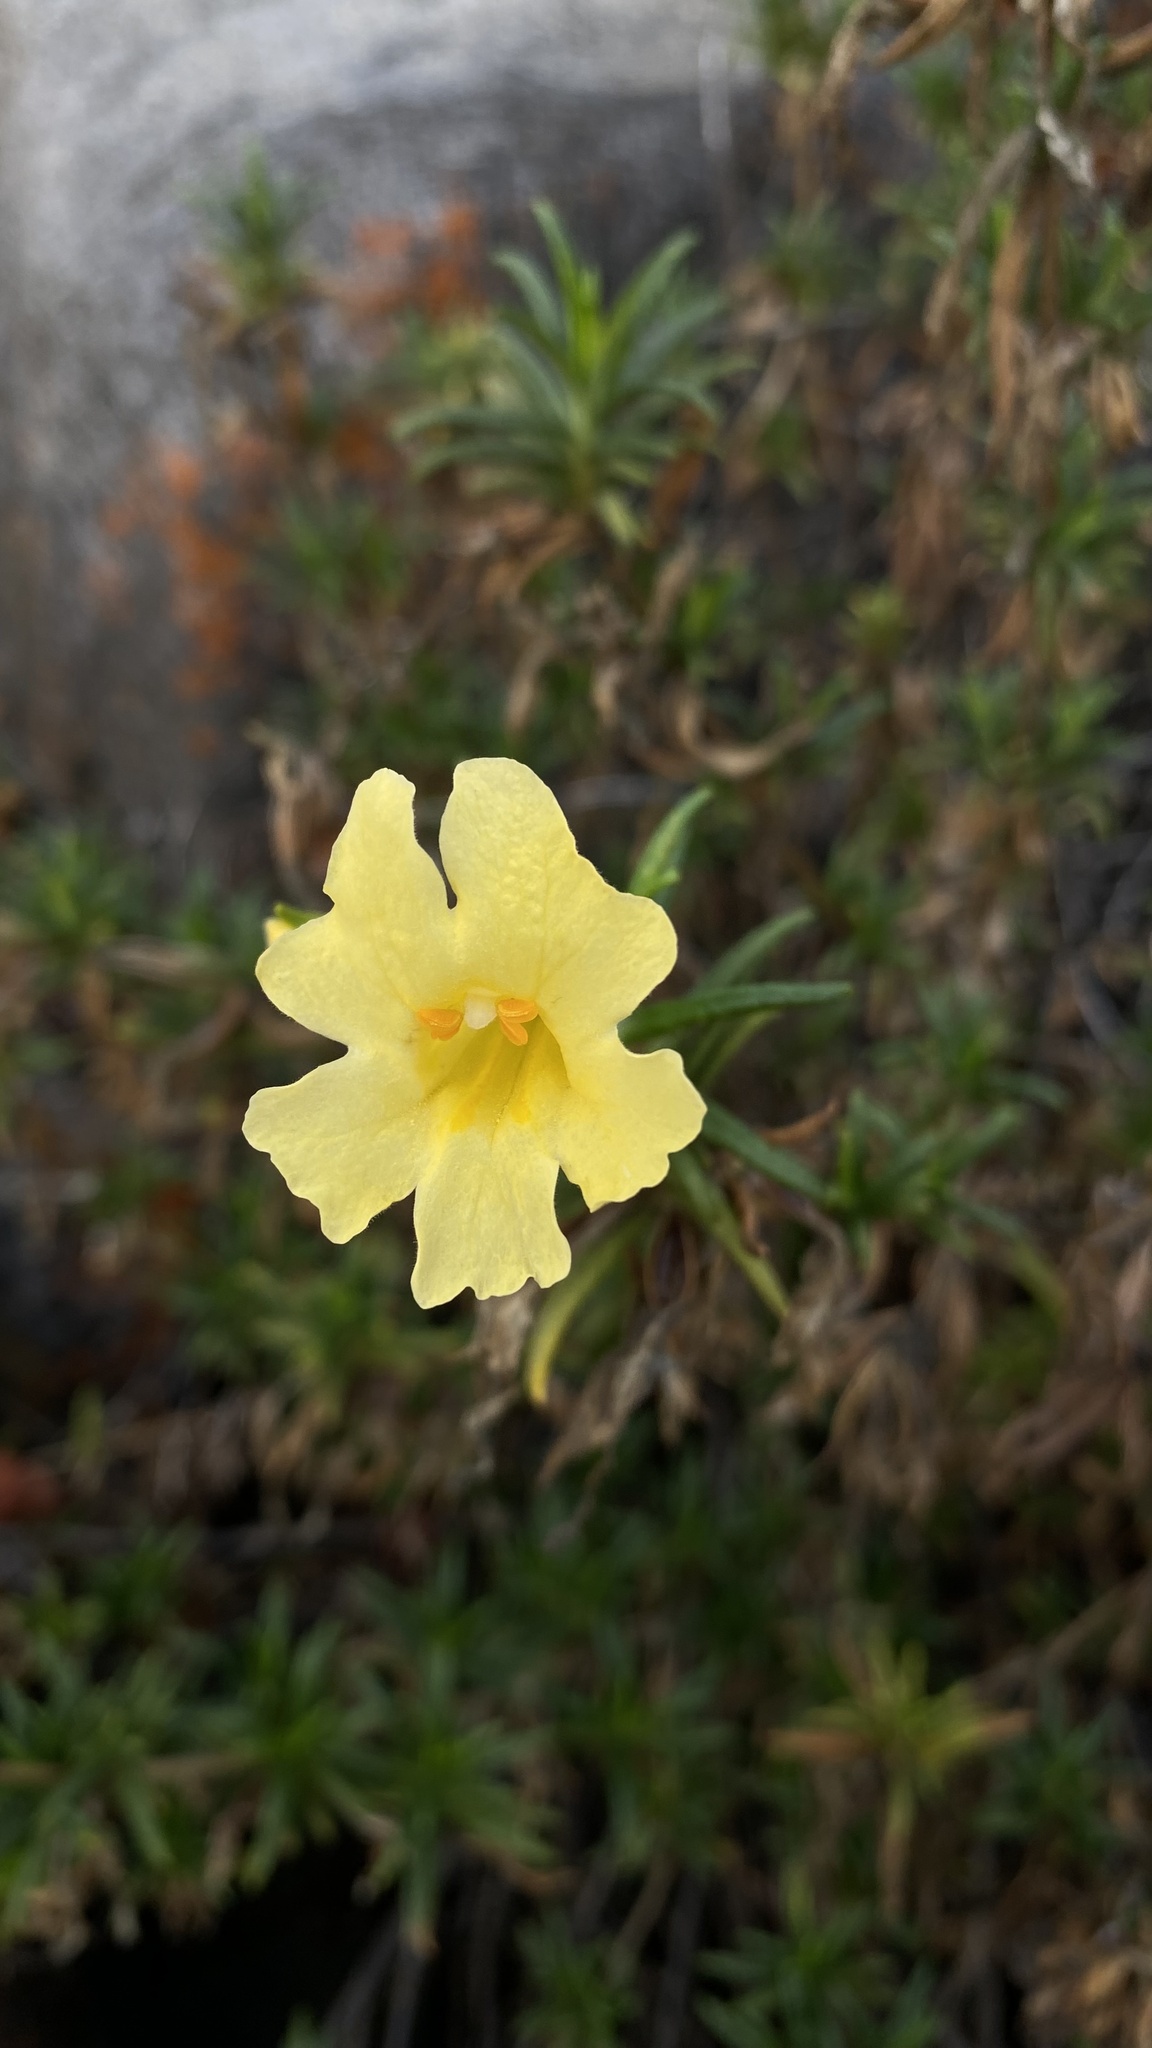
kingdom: Plantae
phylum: Tracheophyta
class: Magnoliopsida
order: Lamiales
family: Phrymaceae
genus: Diplacus
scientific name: Diplacus calycinus
